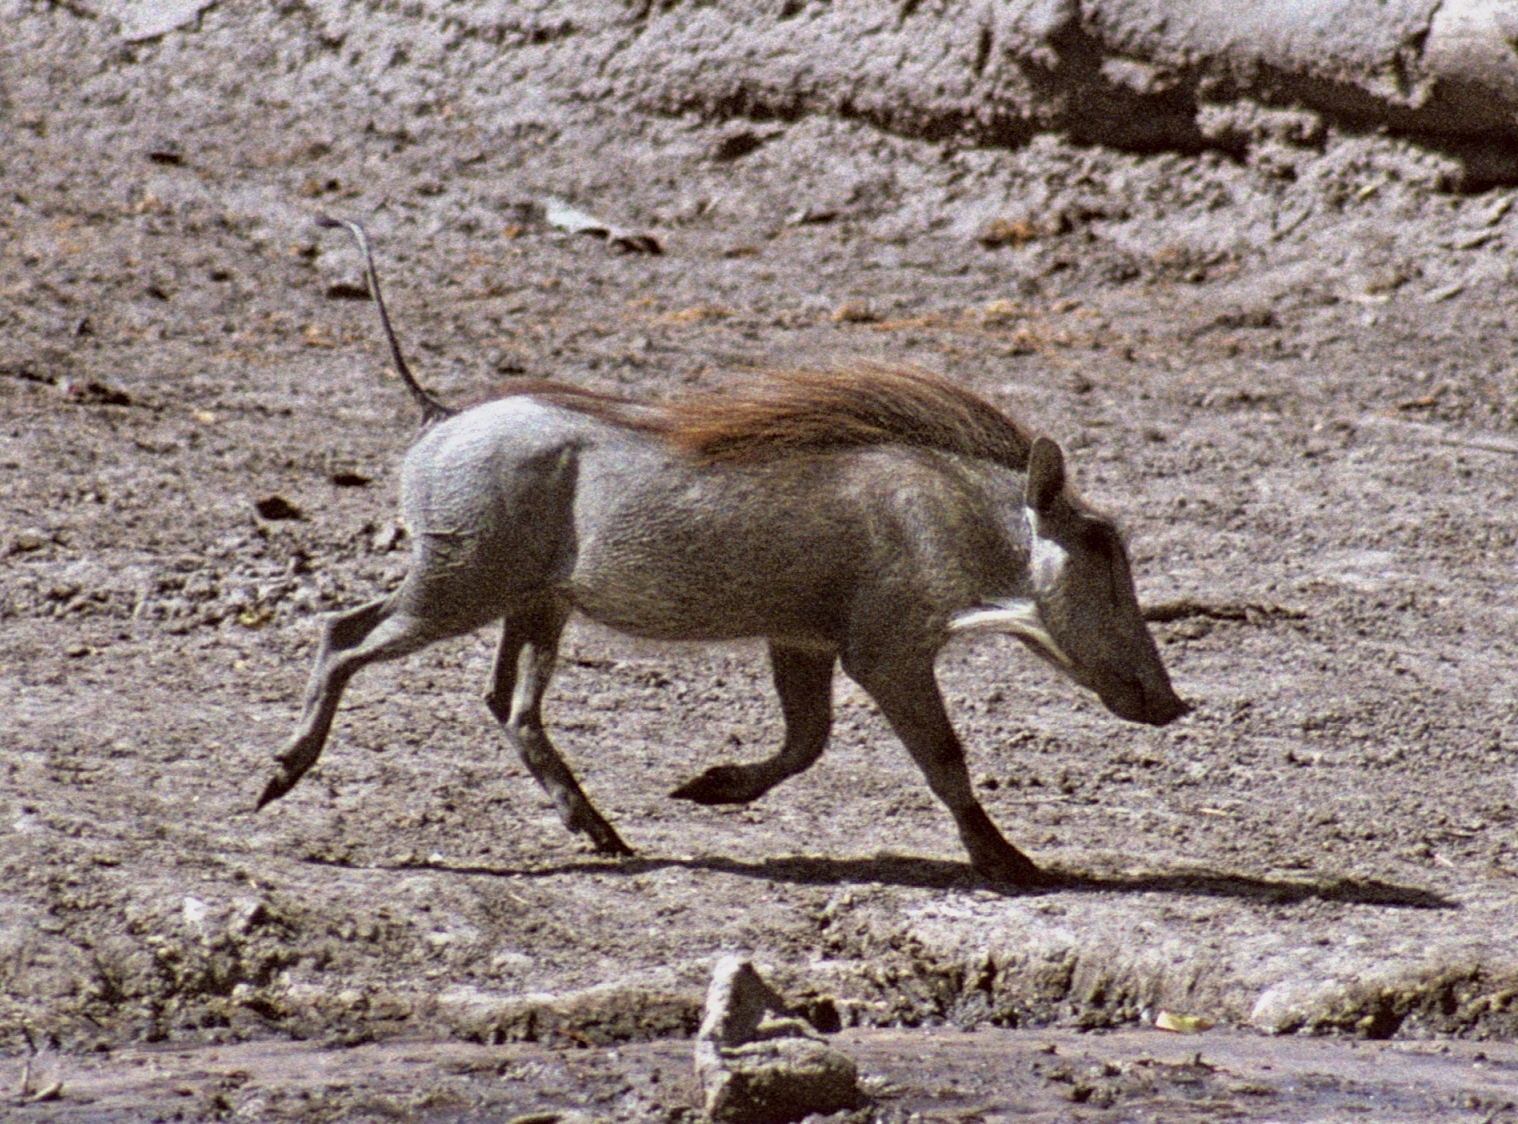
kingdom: Animalia
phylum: Chordata
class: Mammalia
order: Artiodactyla
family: Suidae
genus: Phacochoerus
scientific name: Phacochoerus africanus
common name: Common warthog
